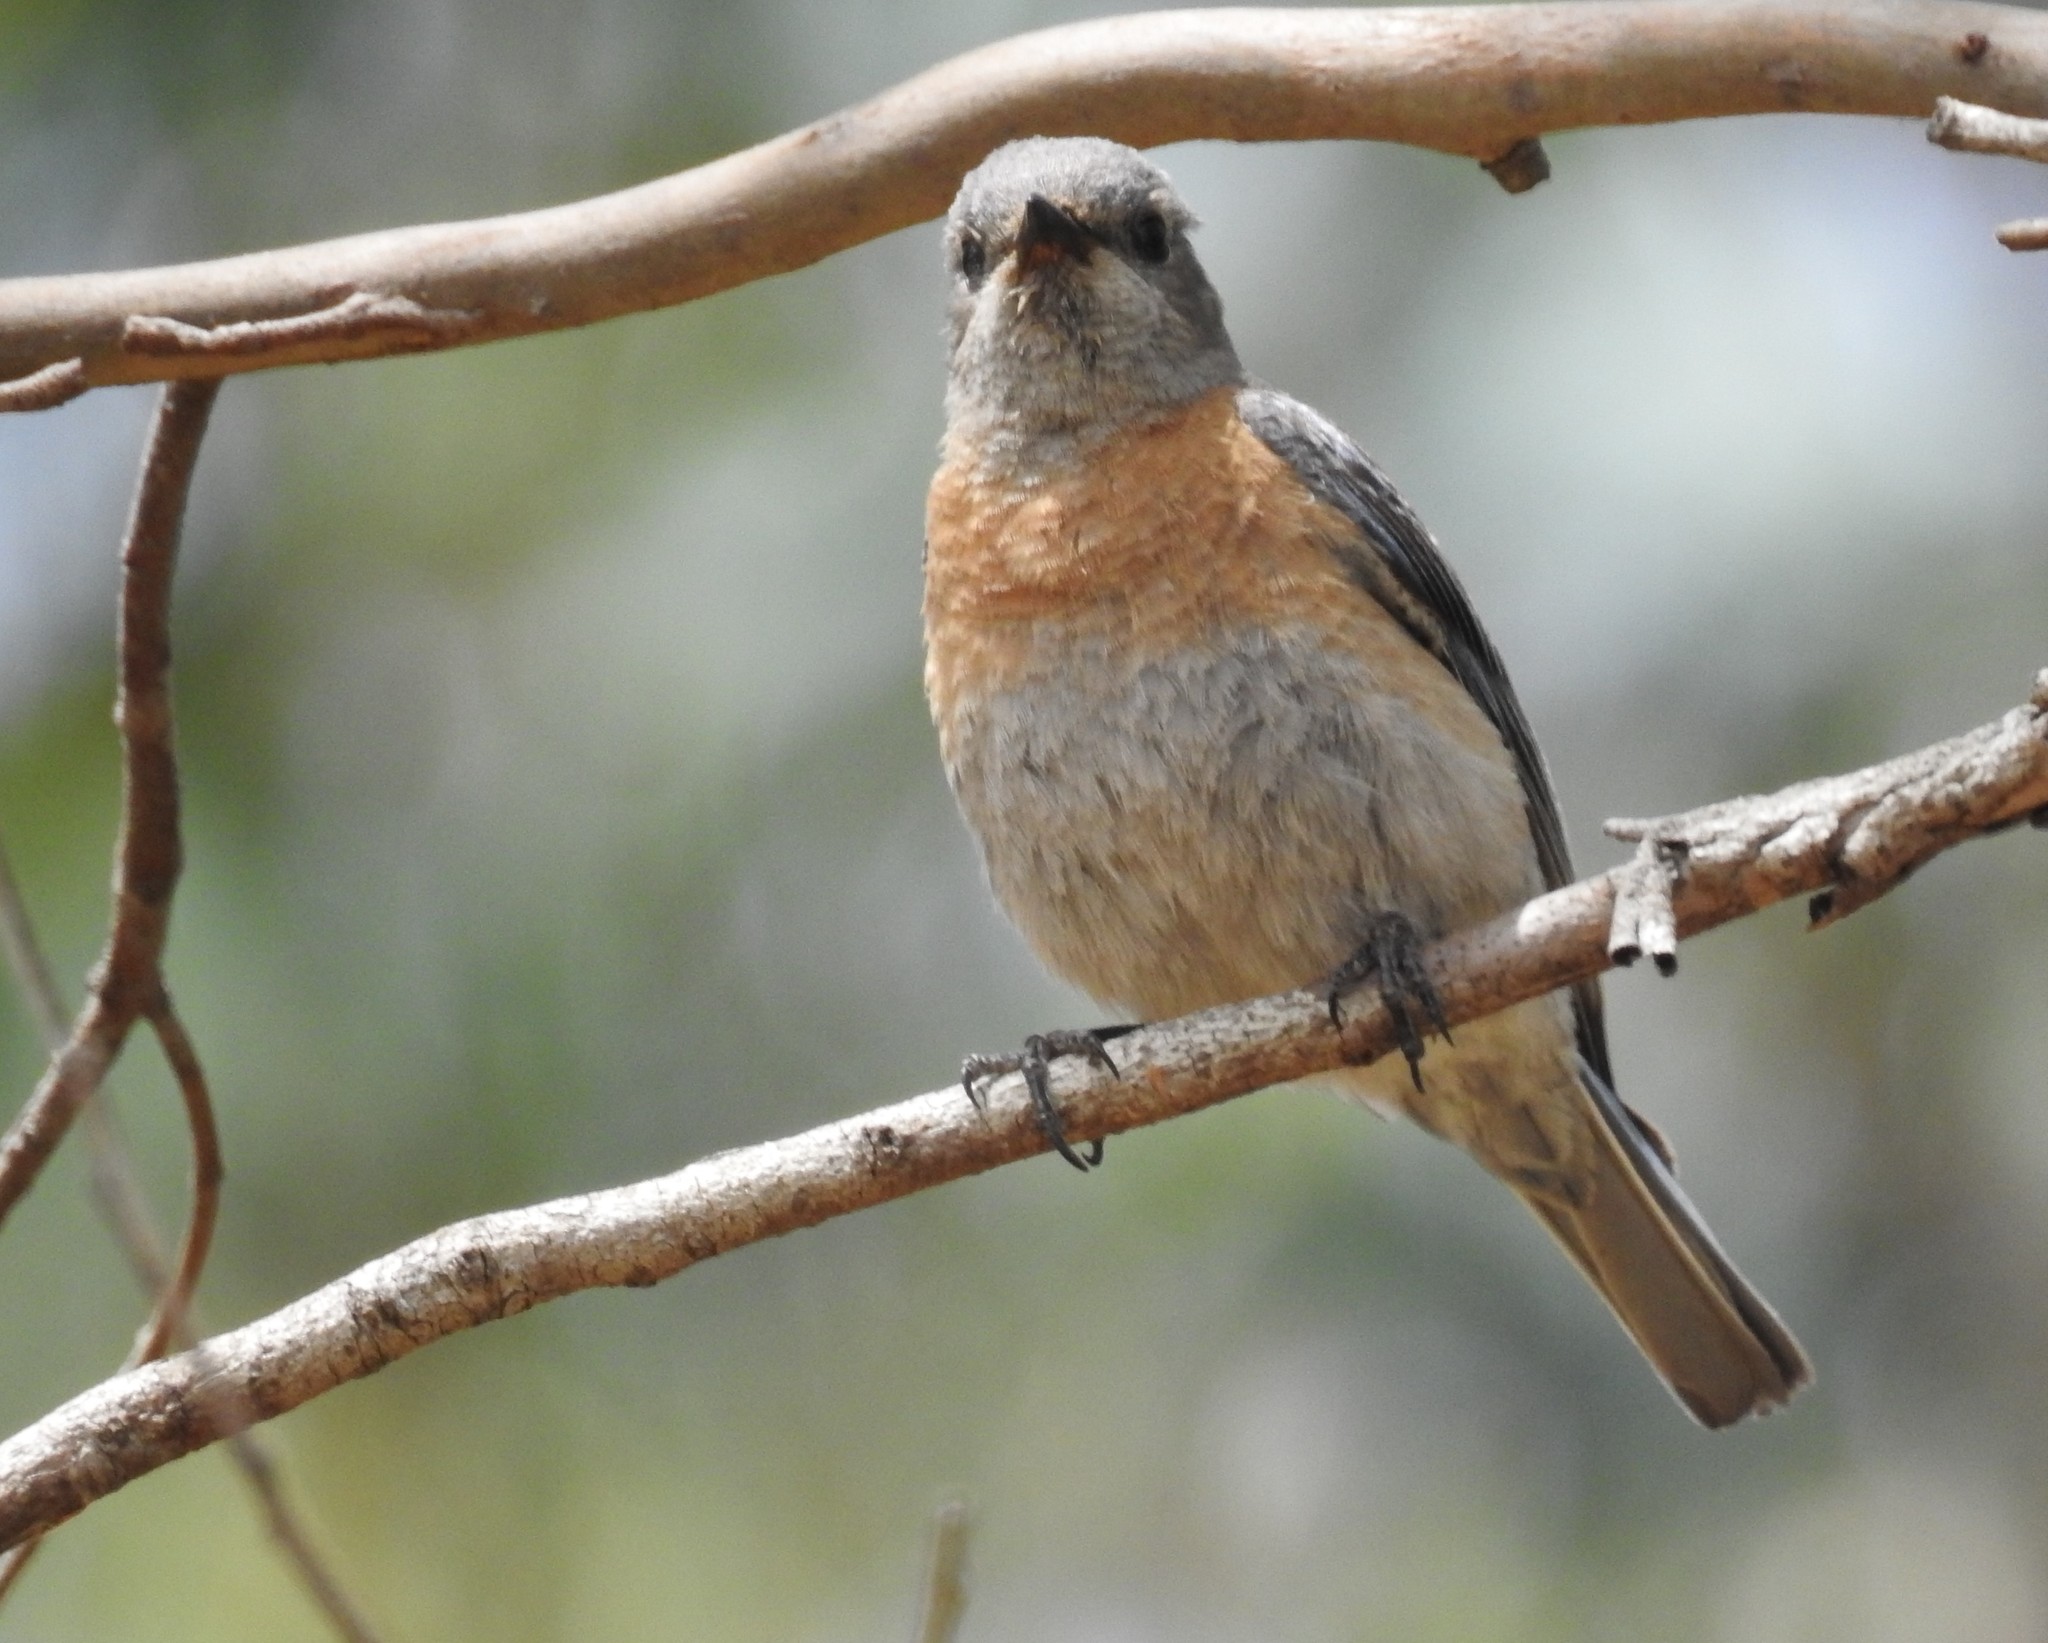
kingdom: Animalia
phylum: Chordata
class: Aves
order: Passeriformes
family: Turdidae
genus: Sialia
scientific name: Sialia mexicana
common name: Western bluebird
